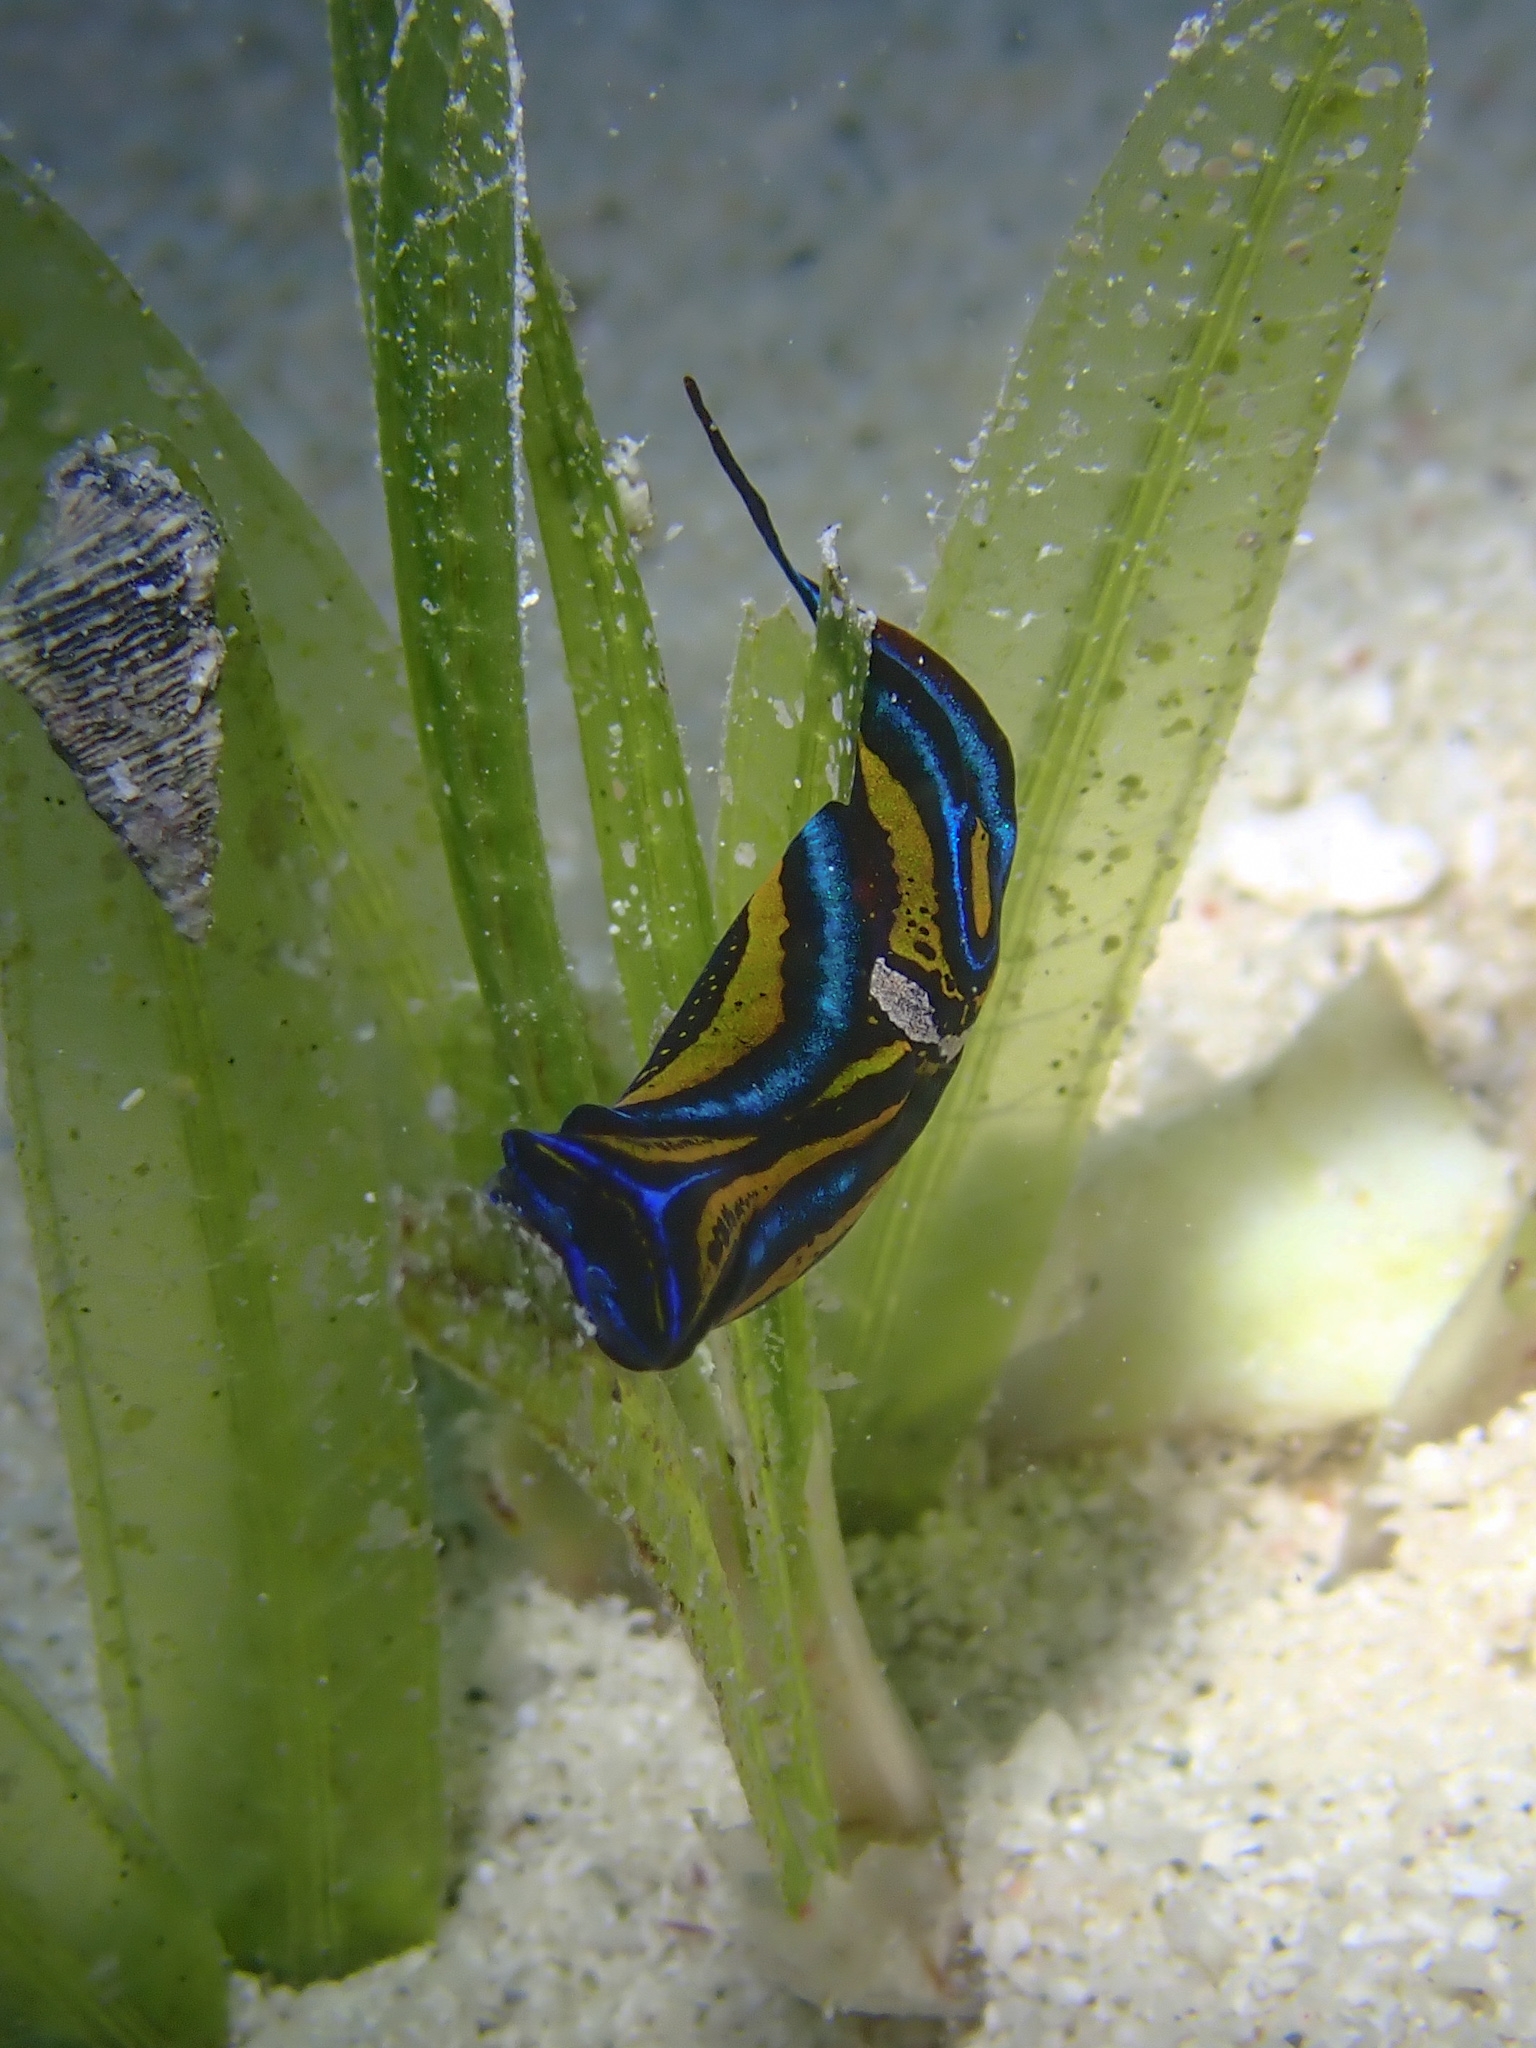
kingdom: Animalia
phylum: Mollusca
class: Gastropoda
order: Cephalaspidea
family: Aglajidae
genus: Chelidonura
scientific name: Chelidonura hirundinina
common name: Leech headshield slug
